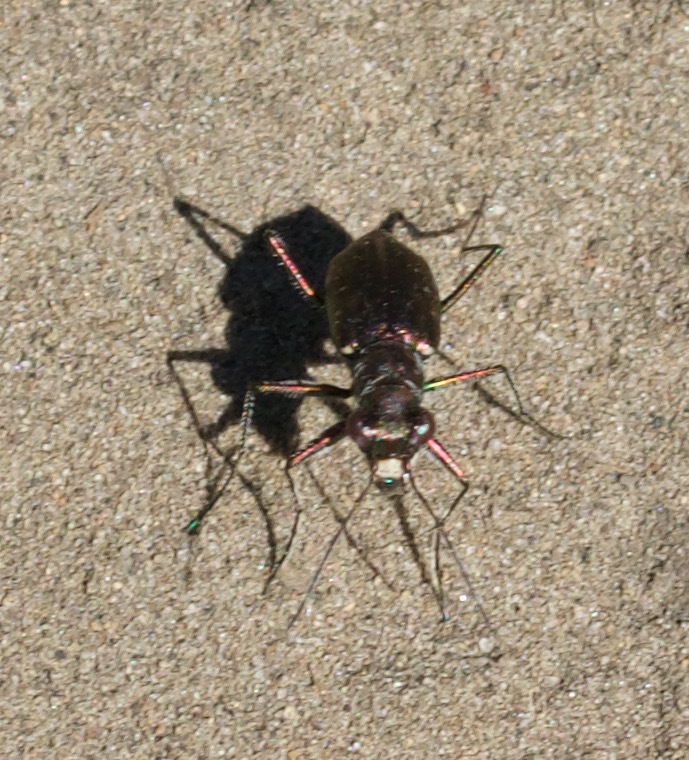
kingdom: Animalia
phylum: Arthropoda
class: Insecta
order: Coleoptera
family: Carabidae
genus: Cicindela
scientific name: Cicindela punctulata
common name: Punctured tiger beetle
